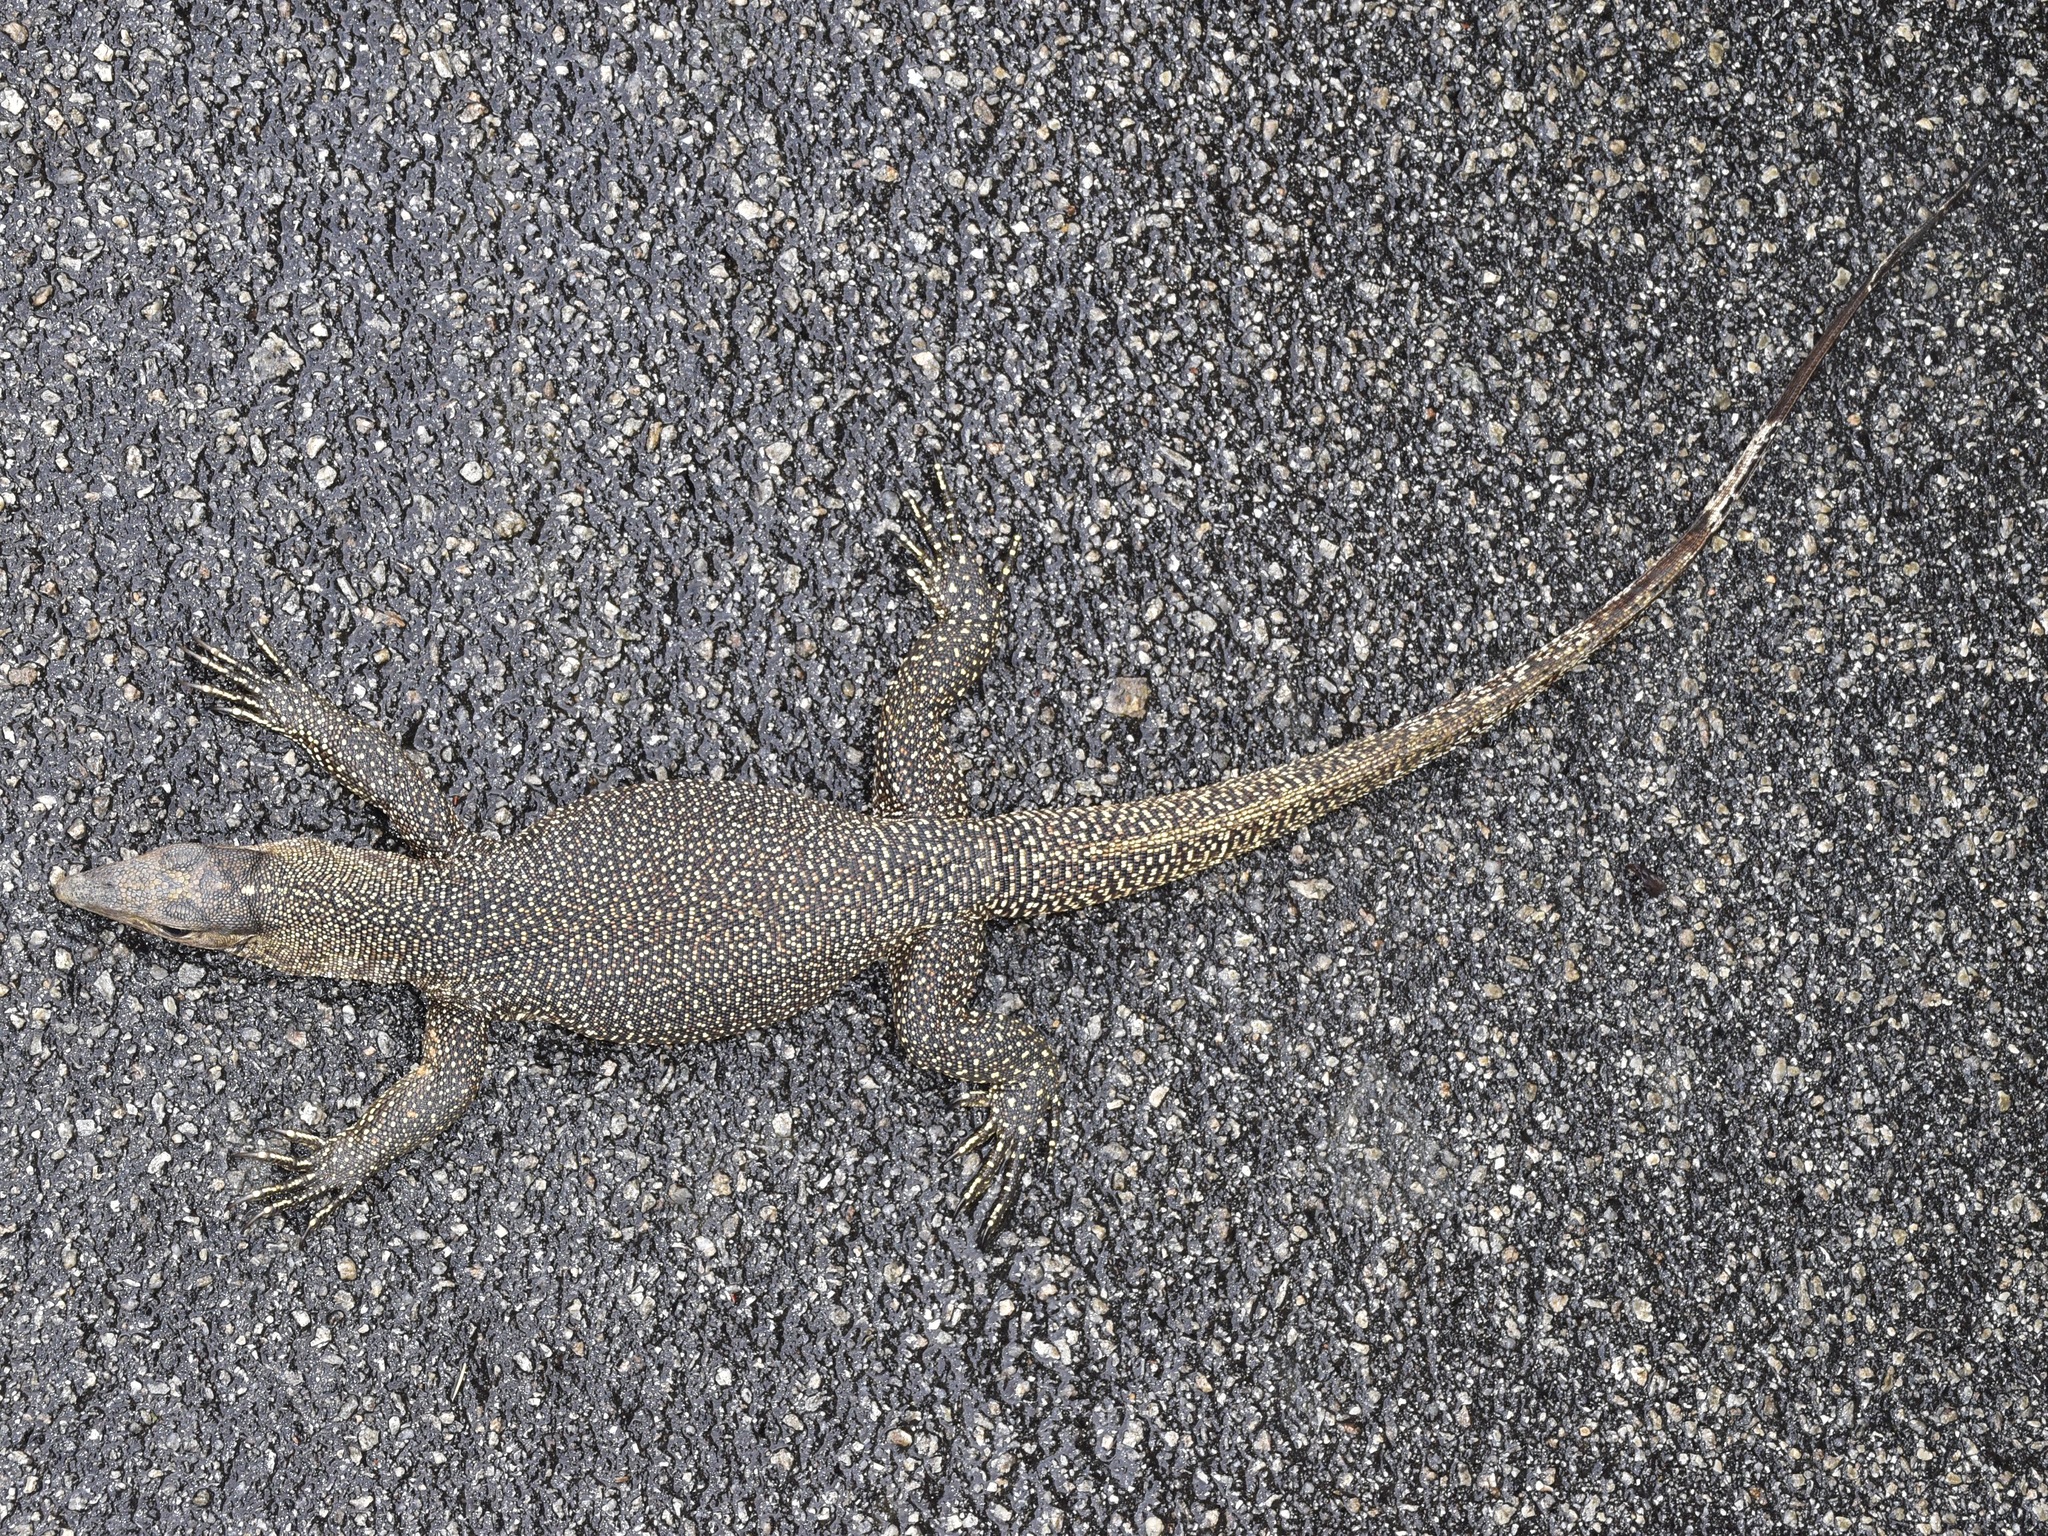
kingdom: Animalia
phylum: Chordata
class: Squamata
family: Varanidae
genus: Varanus
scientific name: Varanus nebulosus
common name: Clouded monitor
